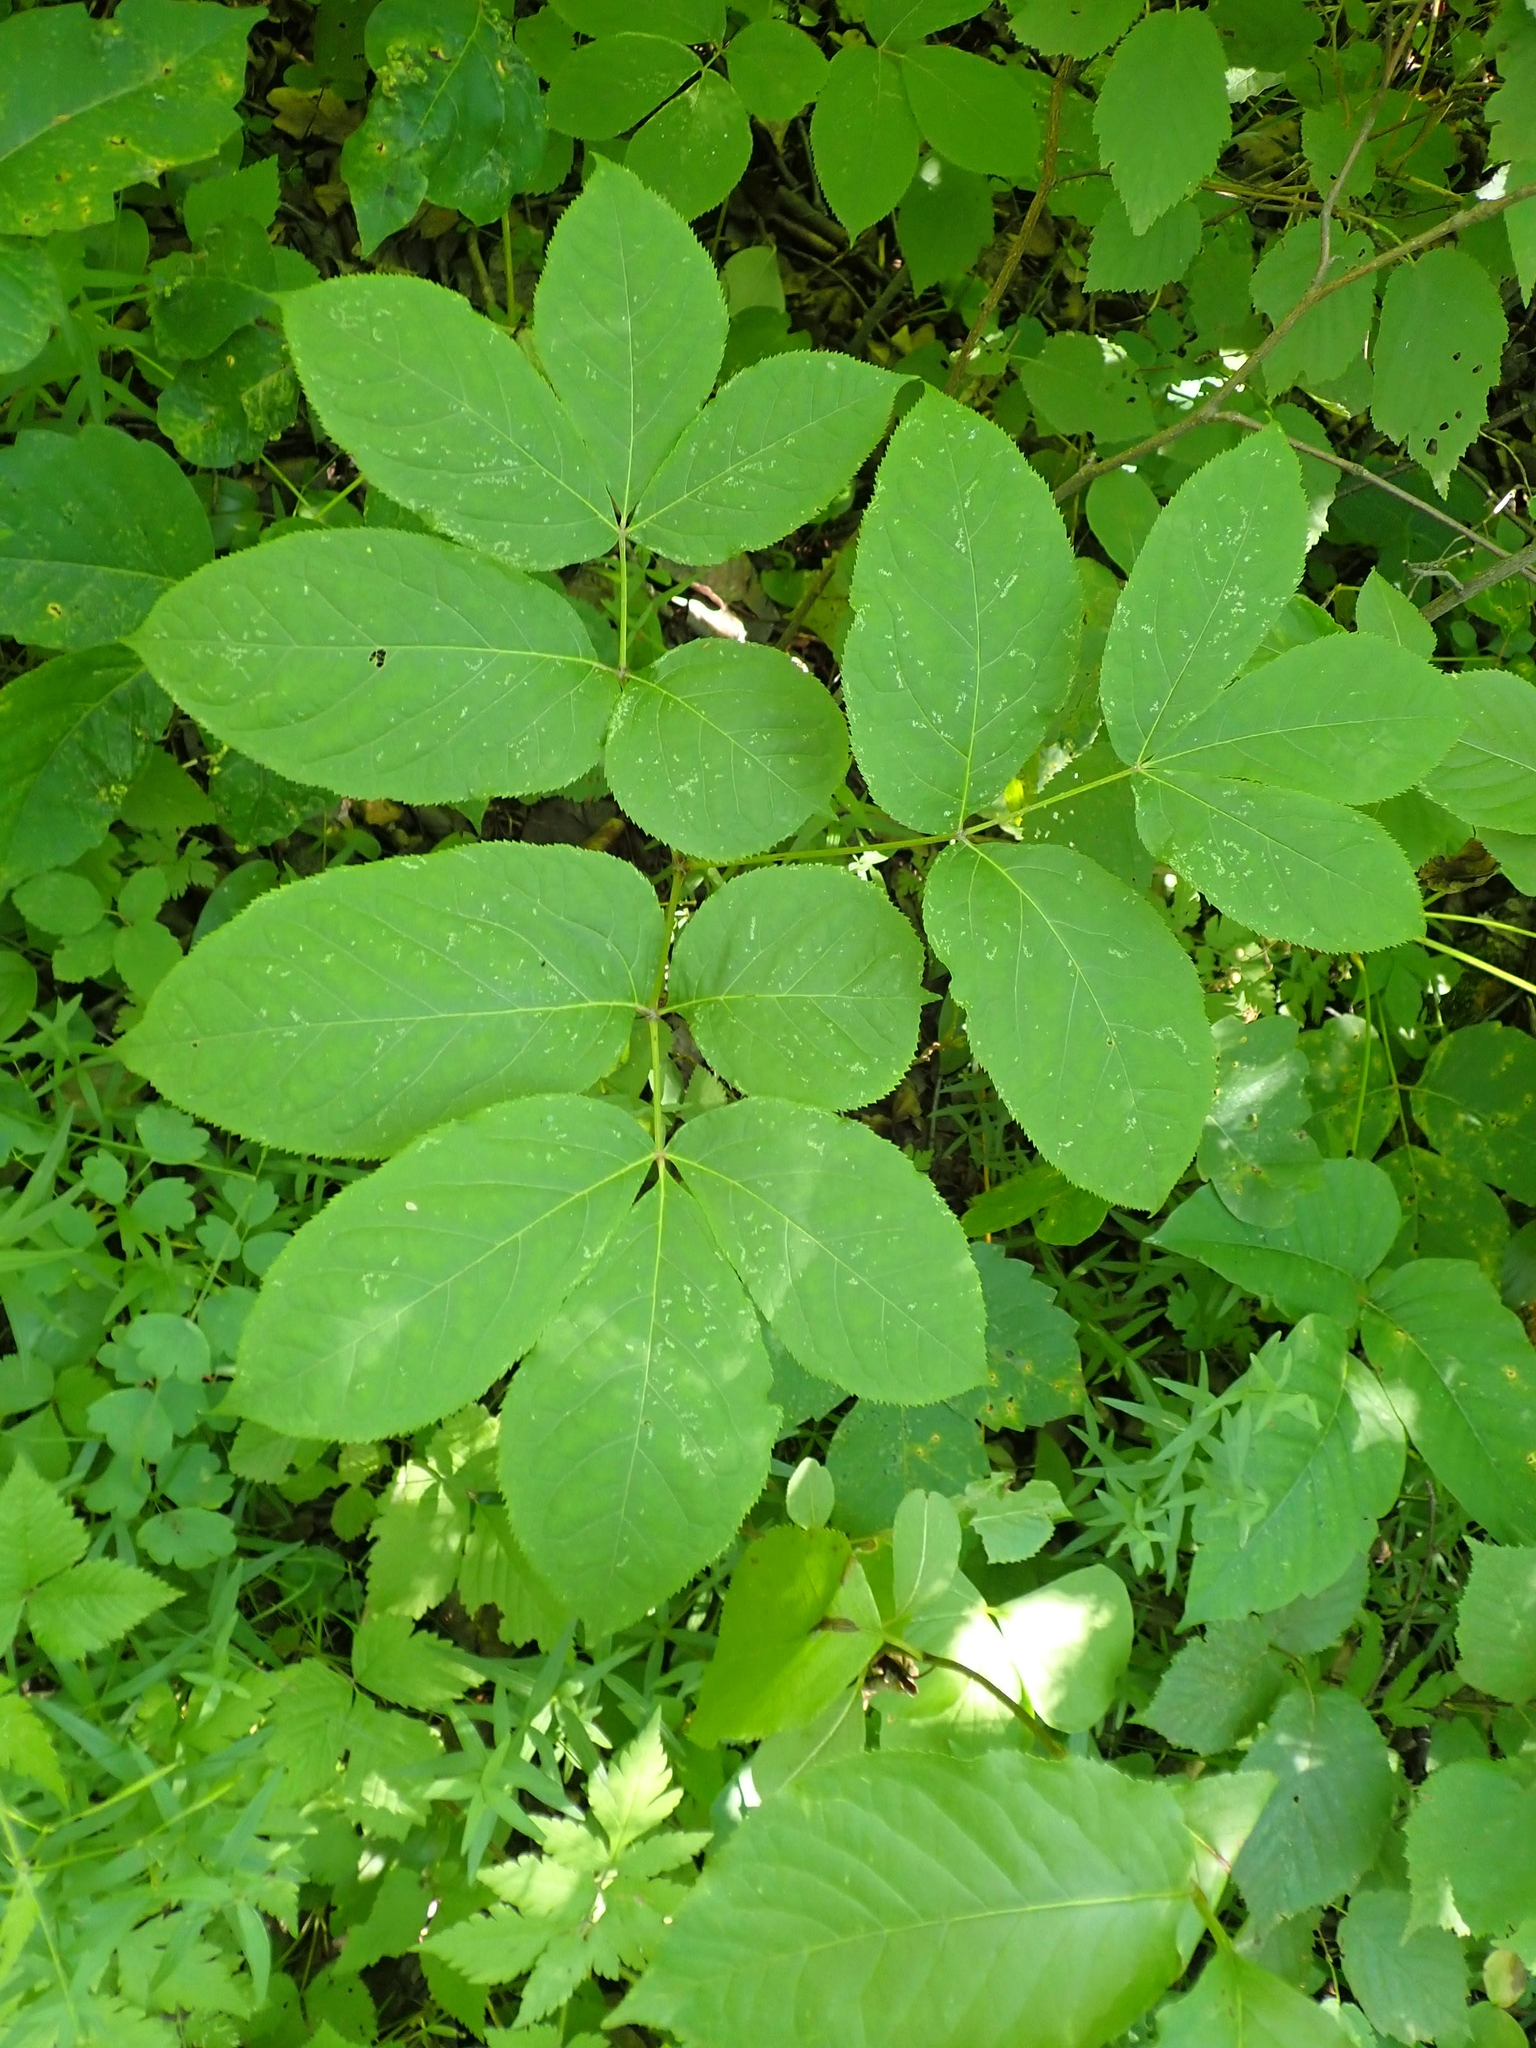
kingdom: Plantae
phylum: Tracheophyta
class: Magnoliopsida
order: Apiales
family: Araliaceae
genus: Aralia
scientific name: Aralia nudicaulis
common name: Wild sarsaparilla
